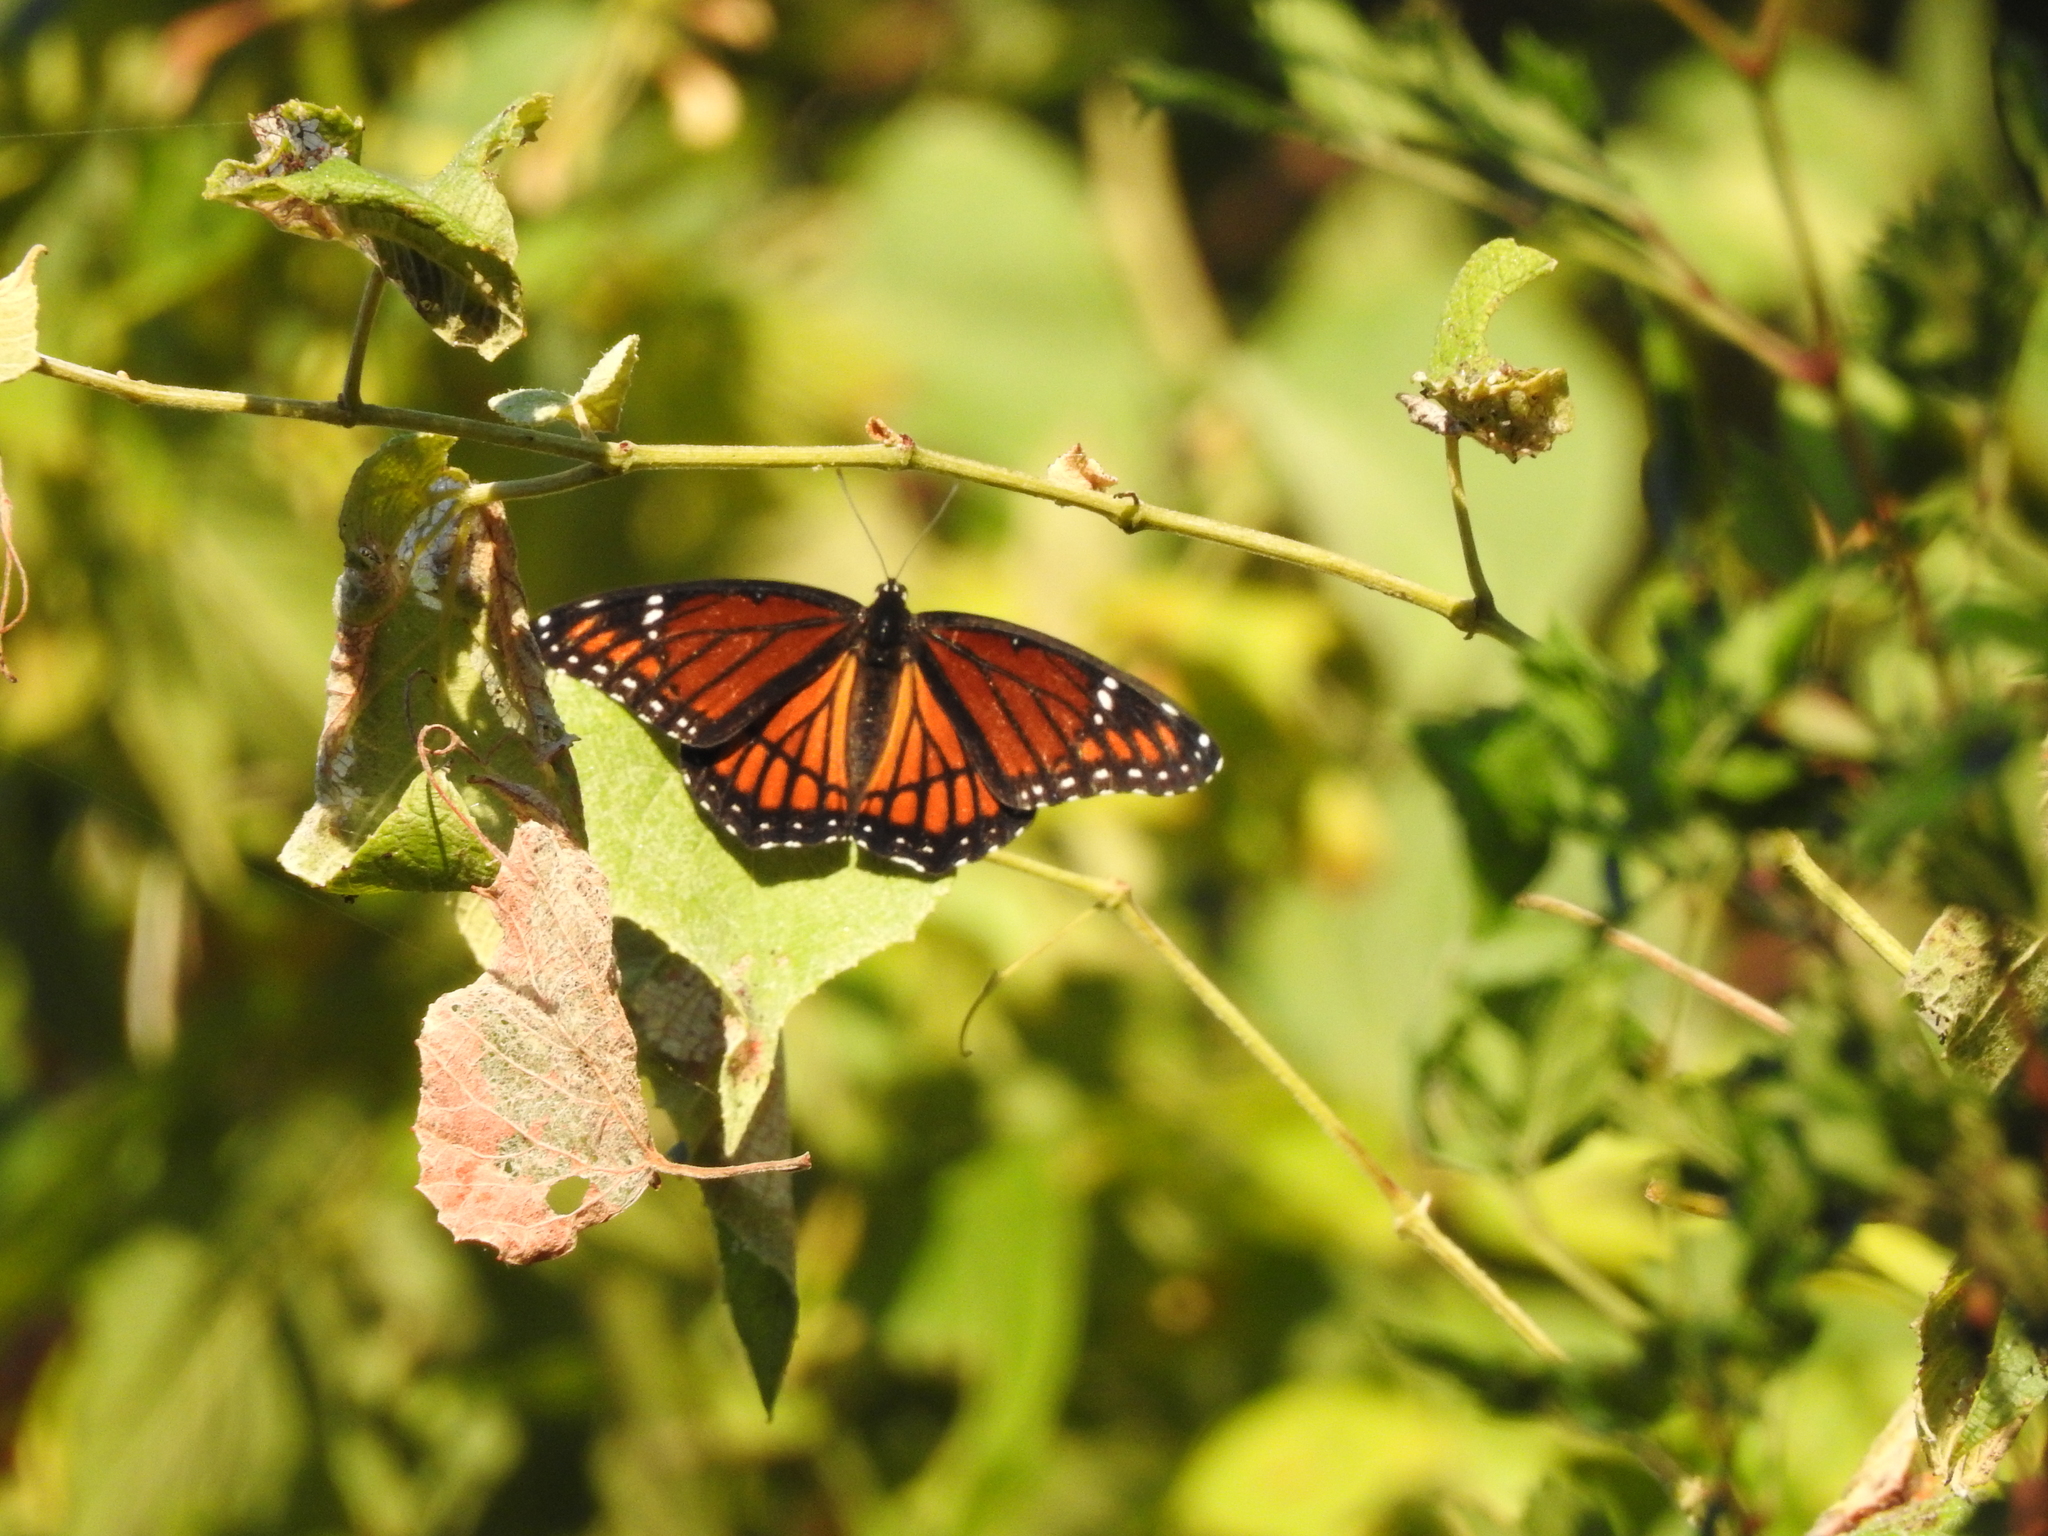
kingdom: Animalia
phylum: Arthropoda
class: Insecta
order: Lepidoptera
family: Nymphalidae
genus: Limenitis
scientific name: Limenitis archippus
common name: Viceroy
